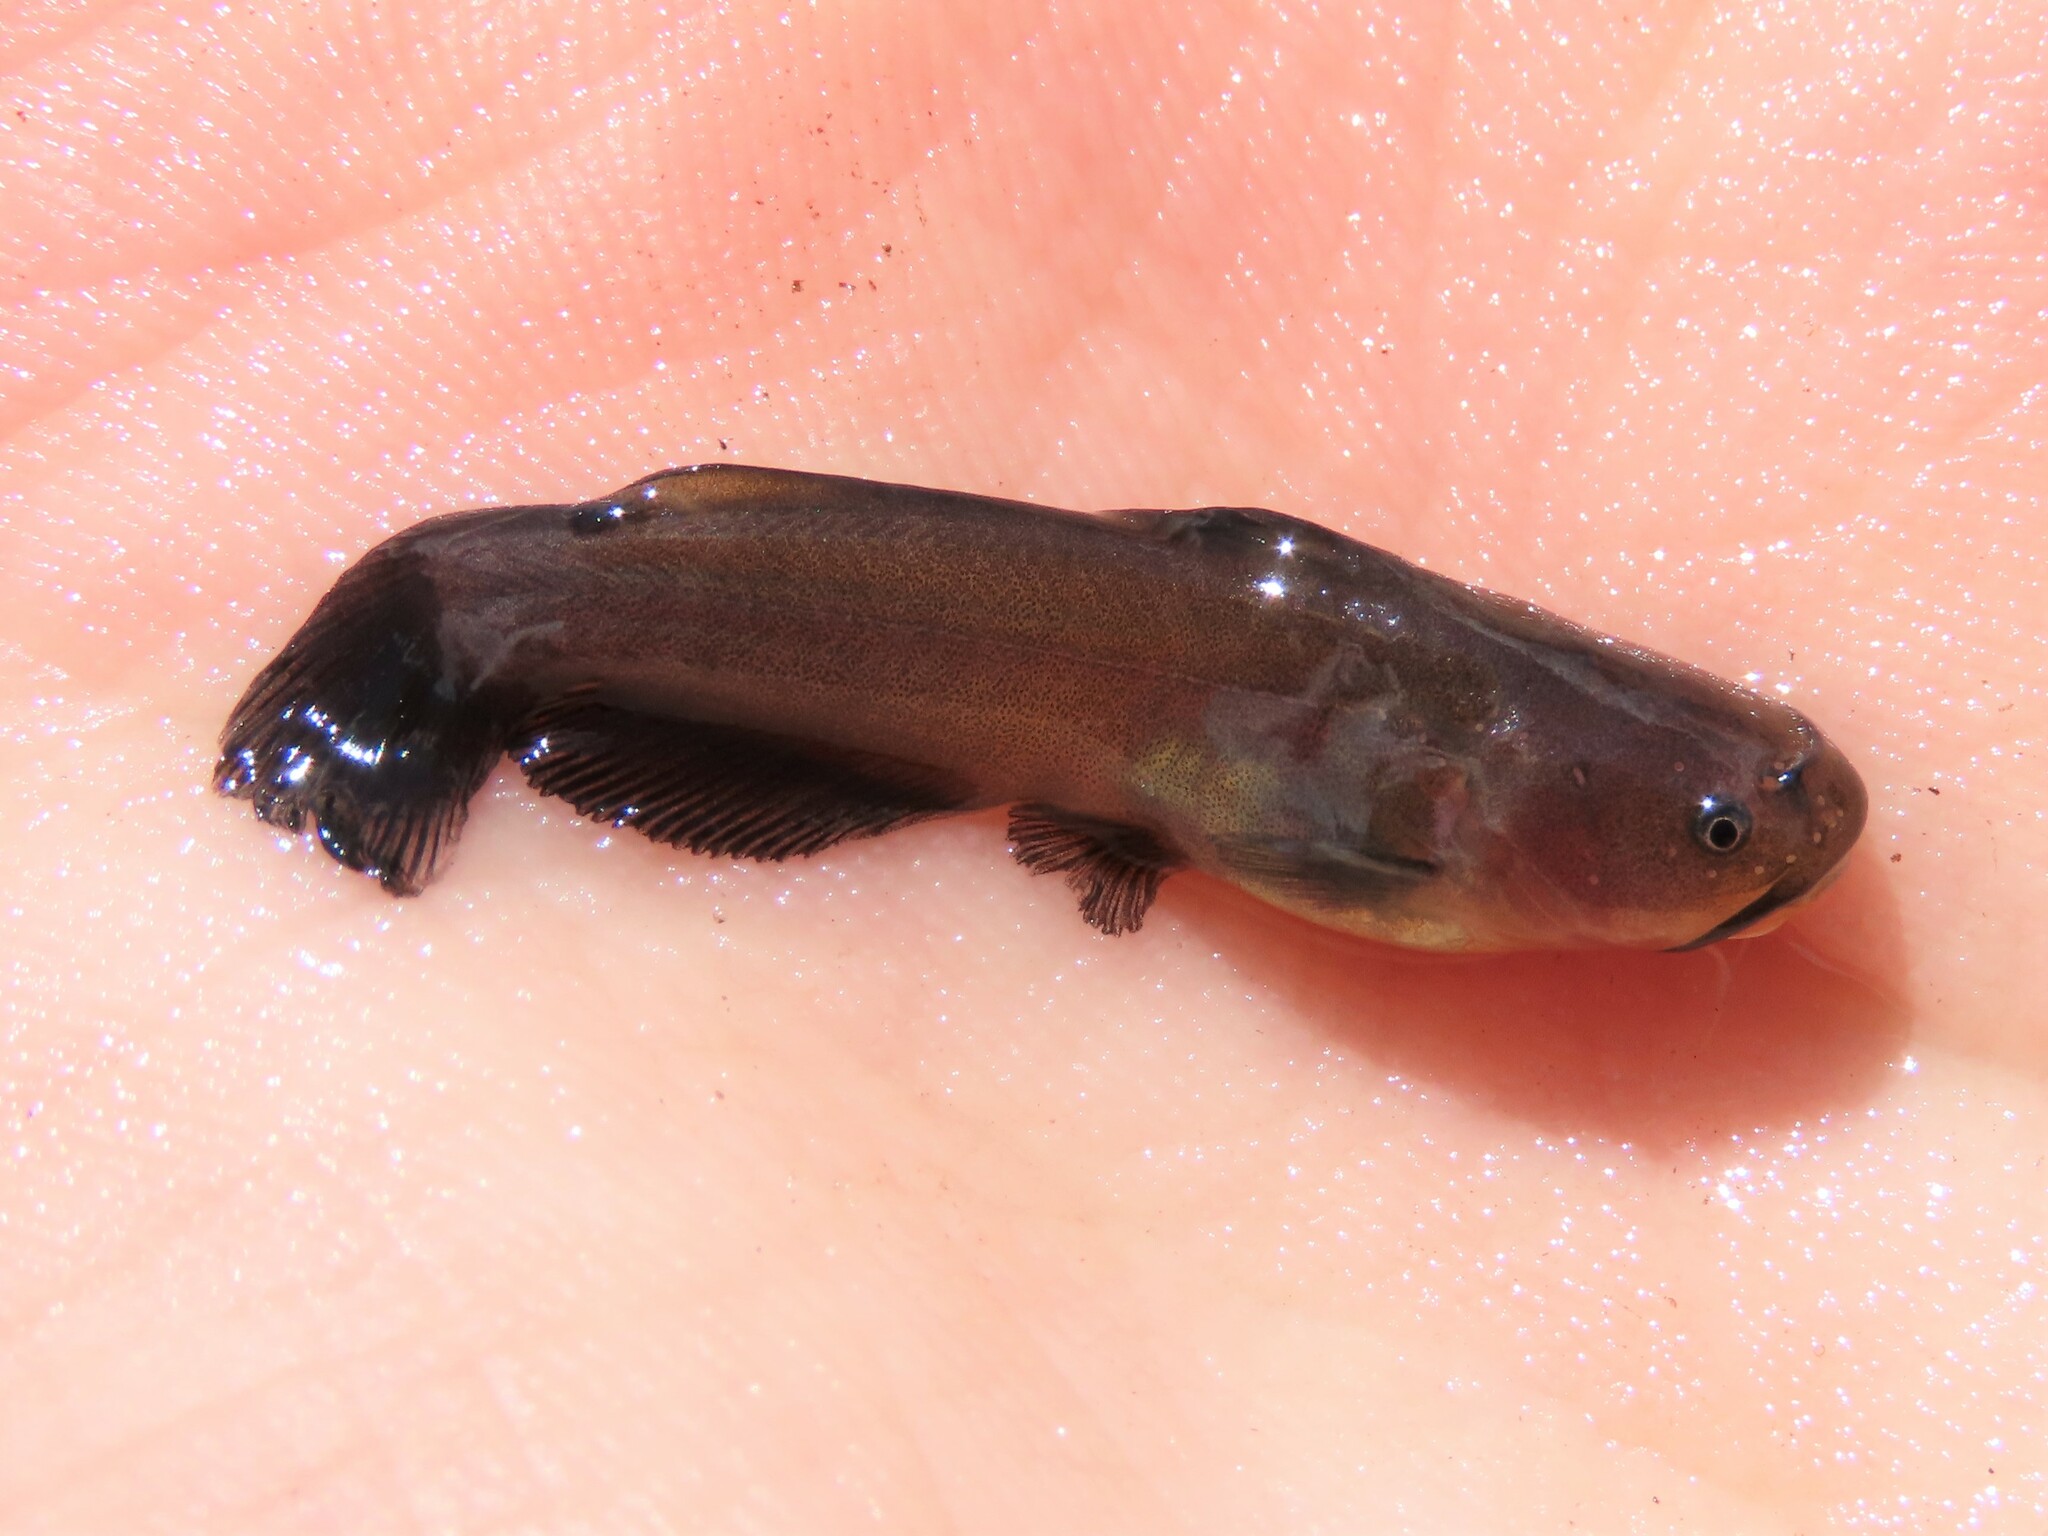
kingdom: Animalia
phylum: Chordata
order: Siluriformes
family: Ictaluridae
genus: Ameiurus
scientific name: Ameiurus natalis
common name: Yellow bullhead
